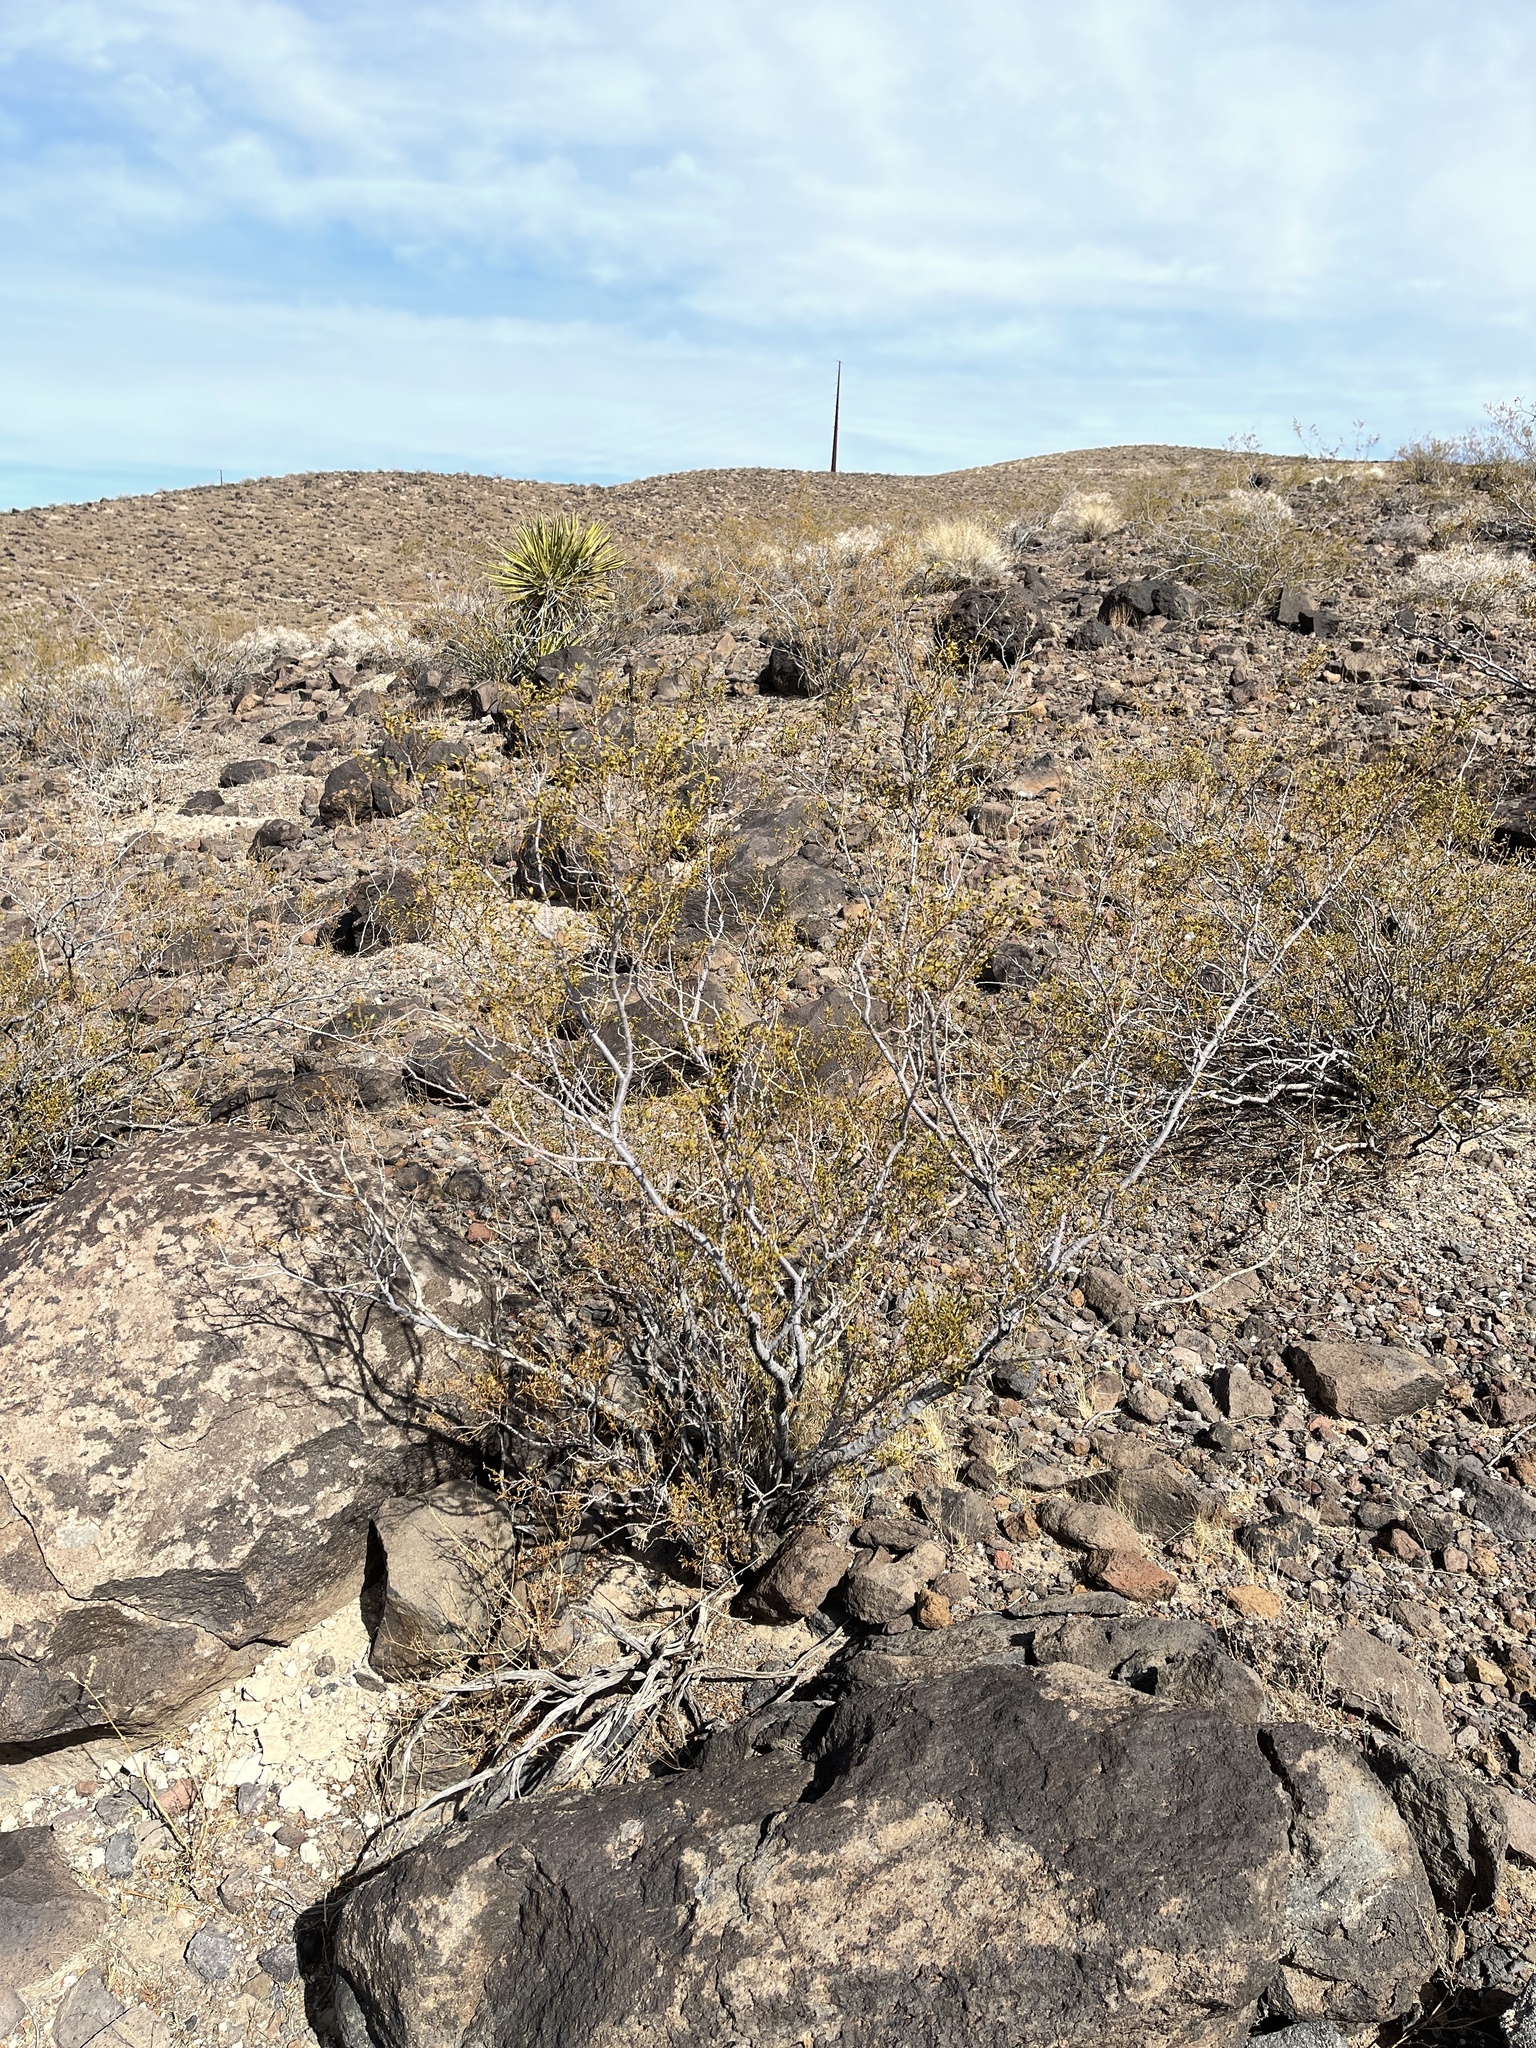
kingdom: Plantae
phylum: Tracheophyta
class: Magnoliopsida
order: Zygophyllales
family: Zygophyllaceae
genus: Larrea
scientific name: Larrea tridentata
